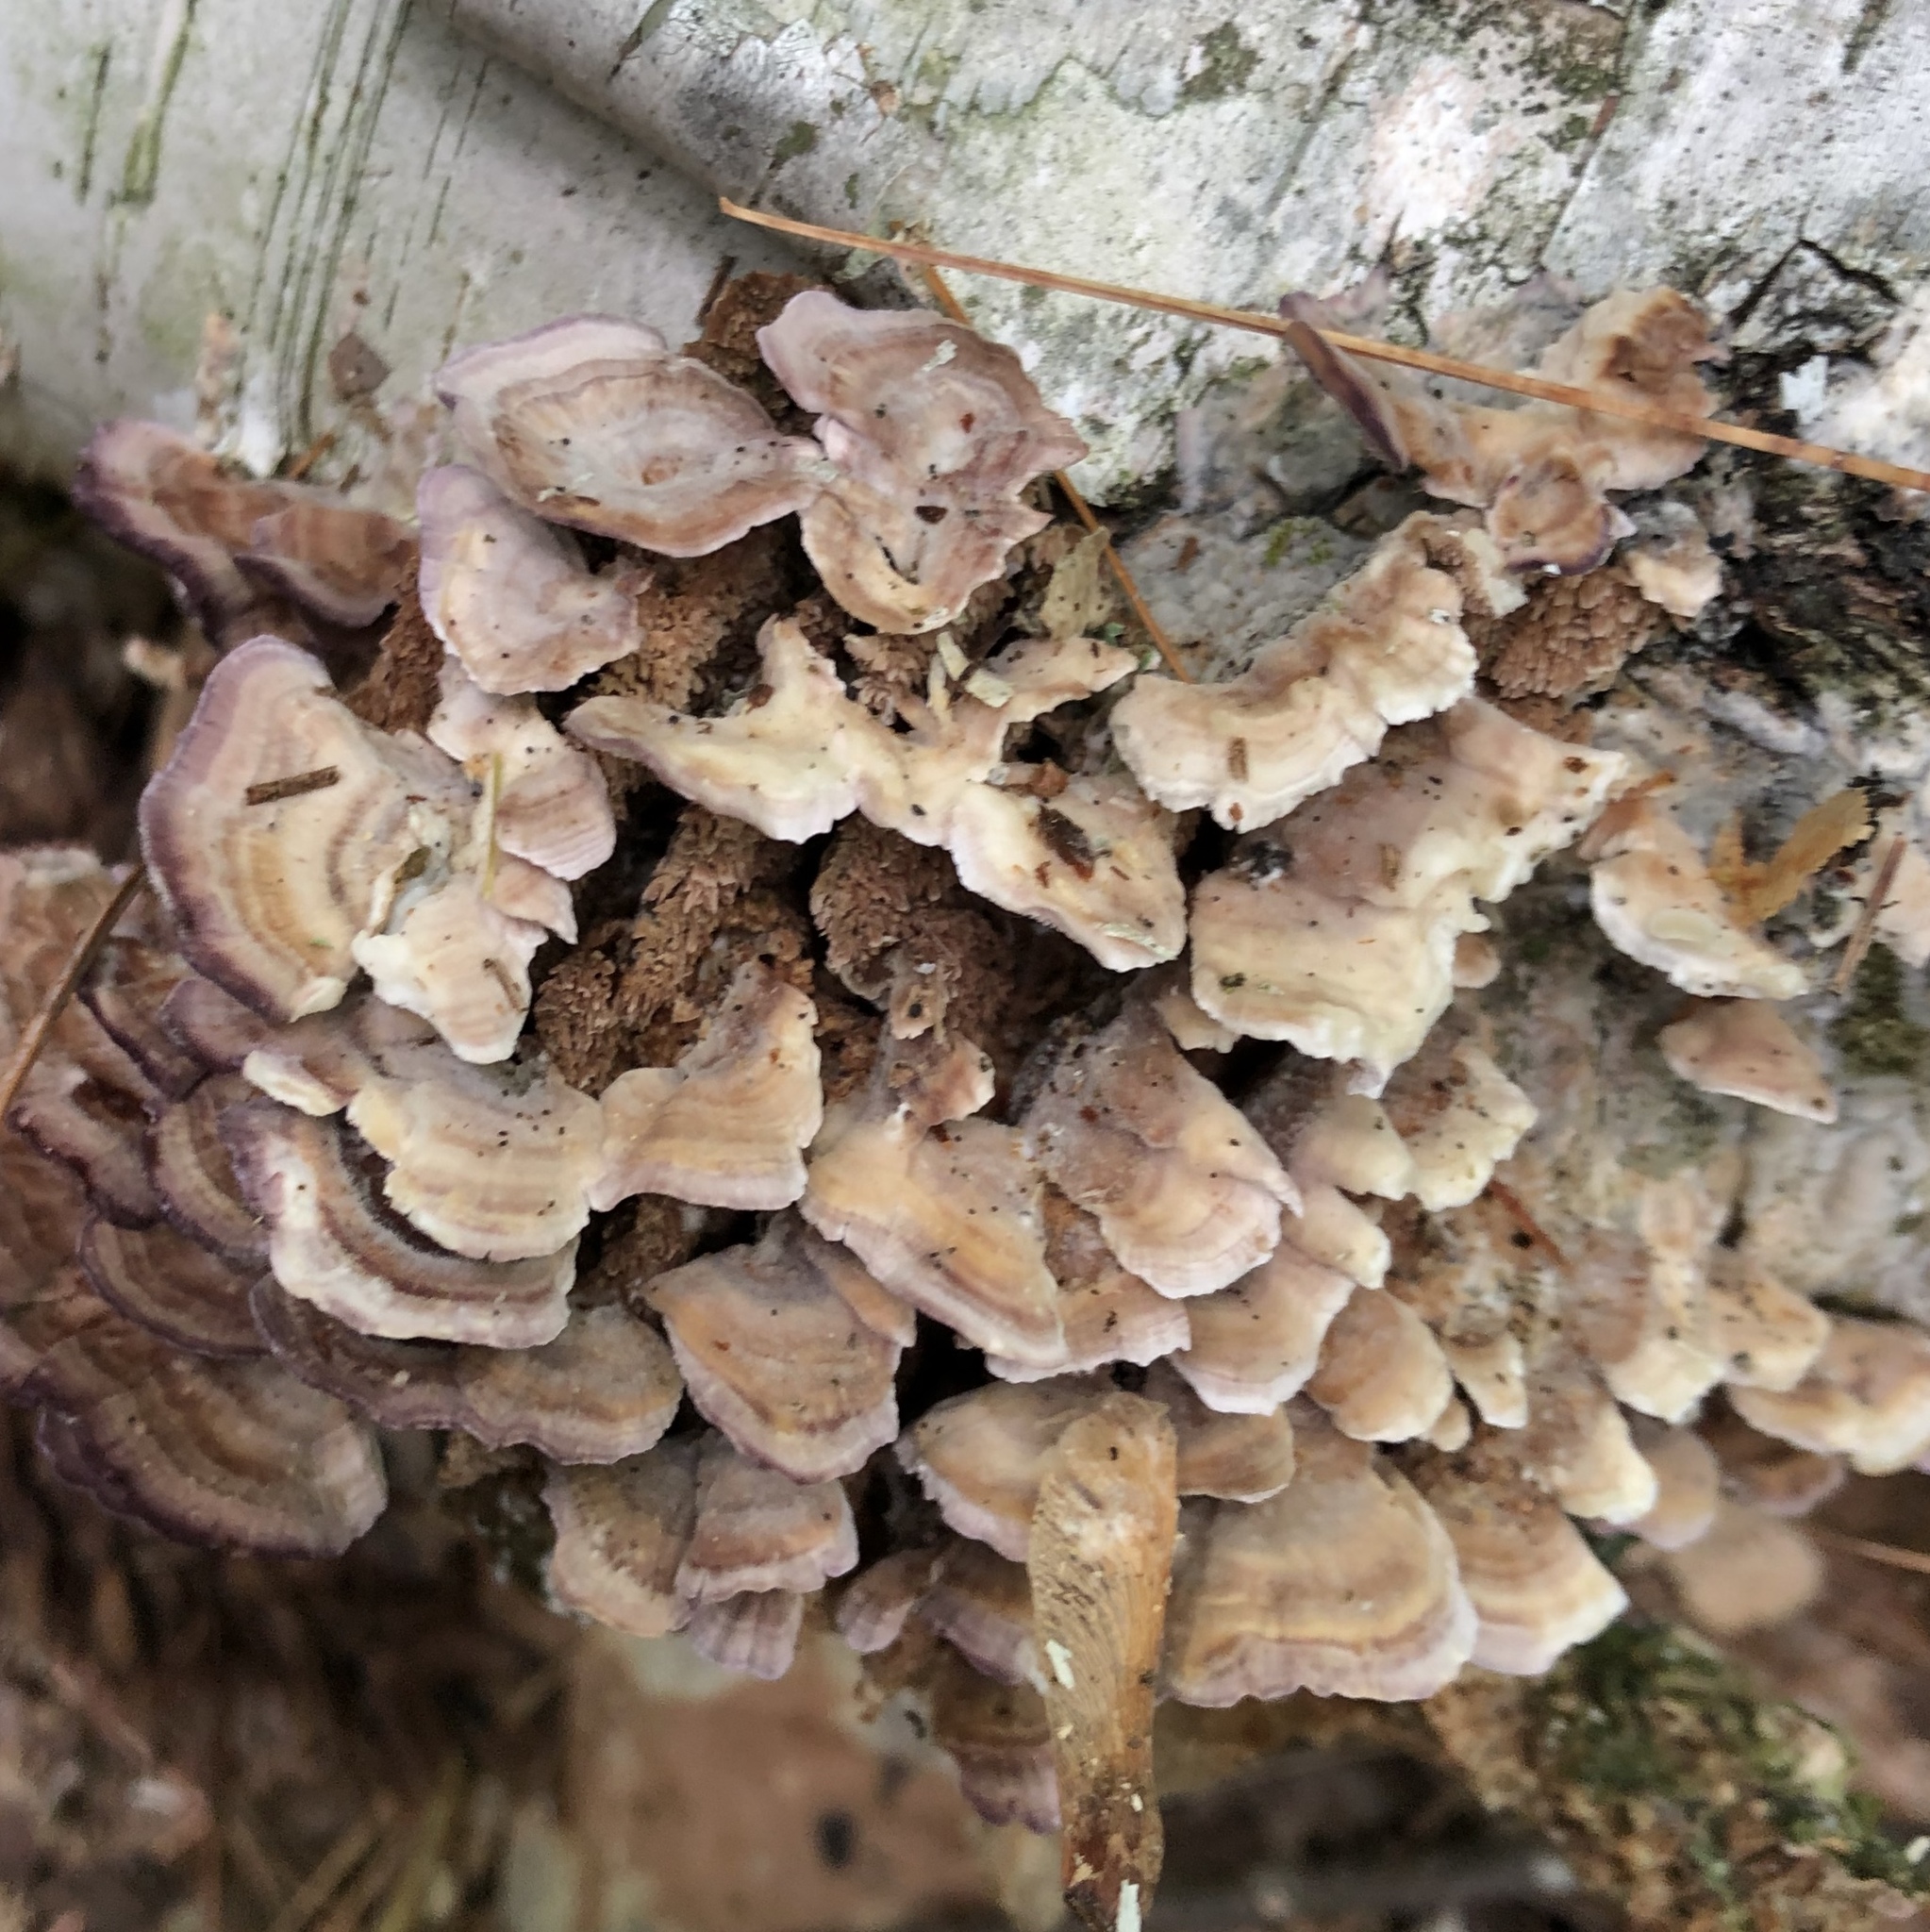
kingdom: Fungi
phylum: Basidiomycota
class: Agaricomycetes
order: Hymenochaetales
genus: Trichaptum
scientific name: Trichaptum biforme
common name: Violet-toothed polypore
